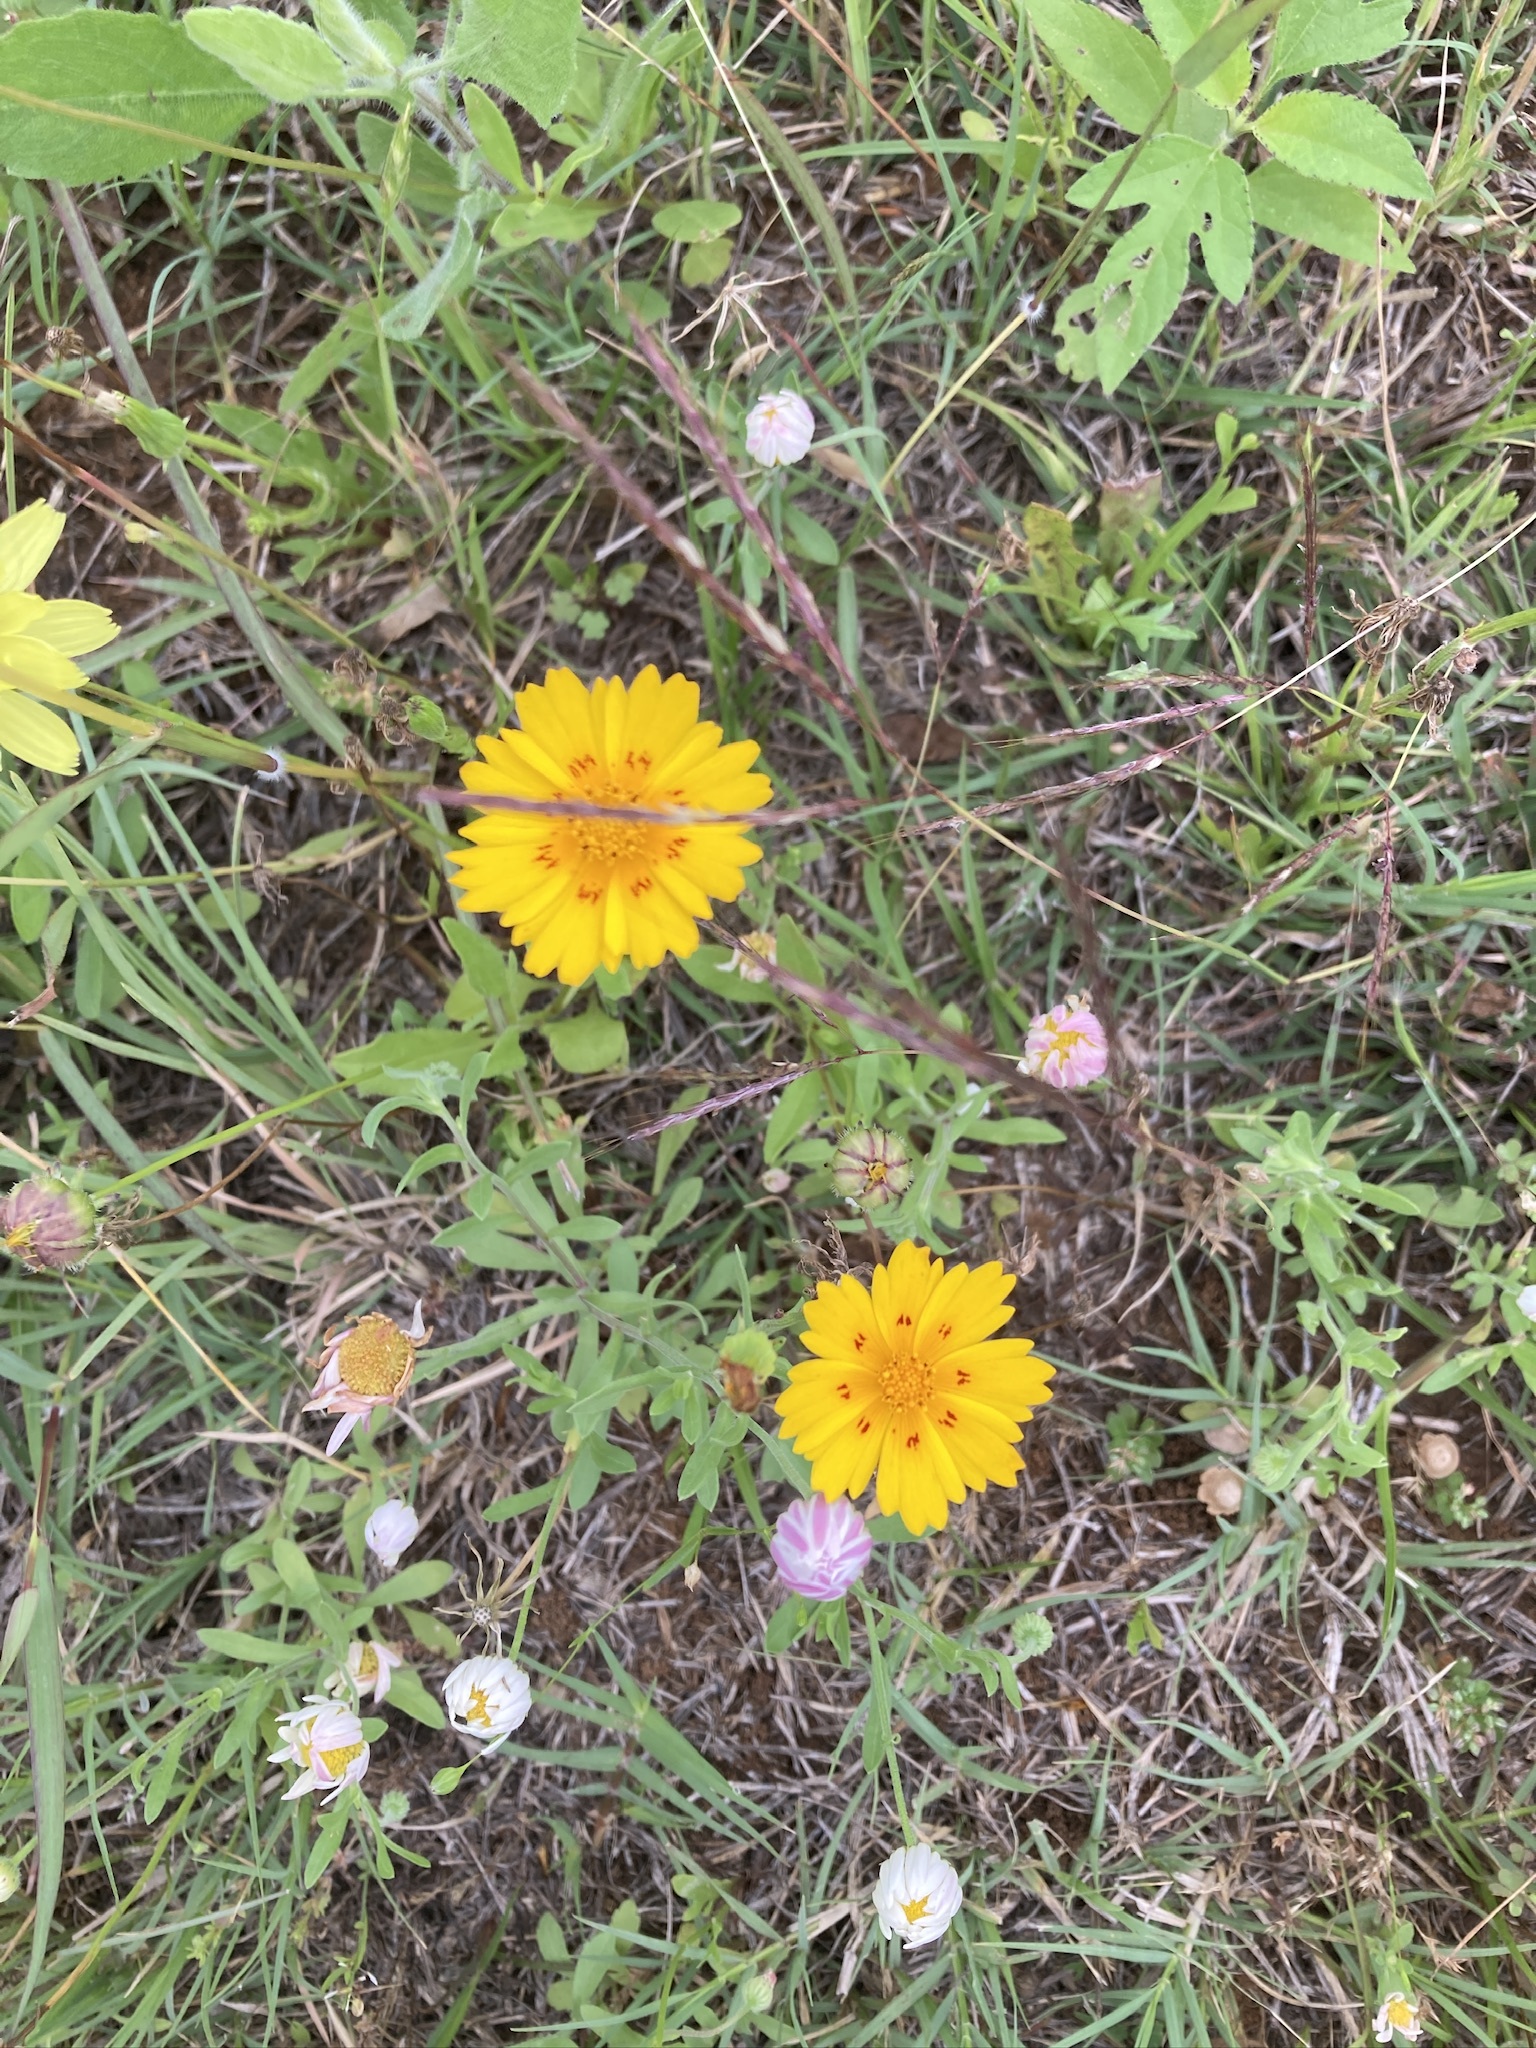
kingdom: Plantae
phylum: Tracheophyta
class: Magnoliopsida
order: Asterales
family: Asteraceae
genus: Coreopsis
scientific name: Coreopsis nuecensis
